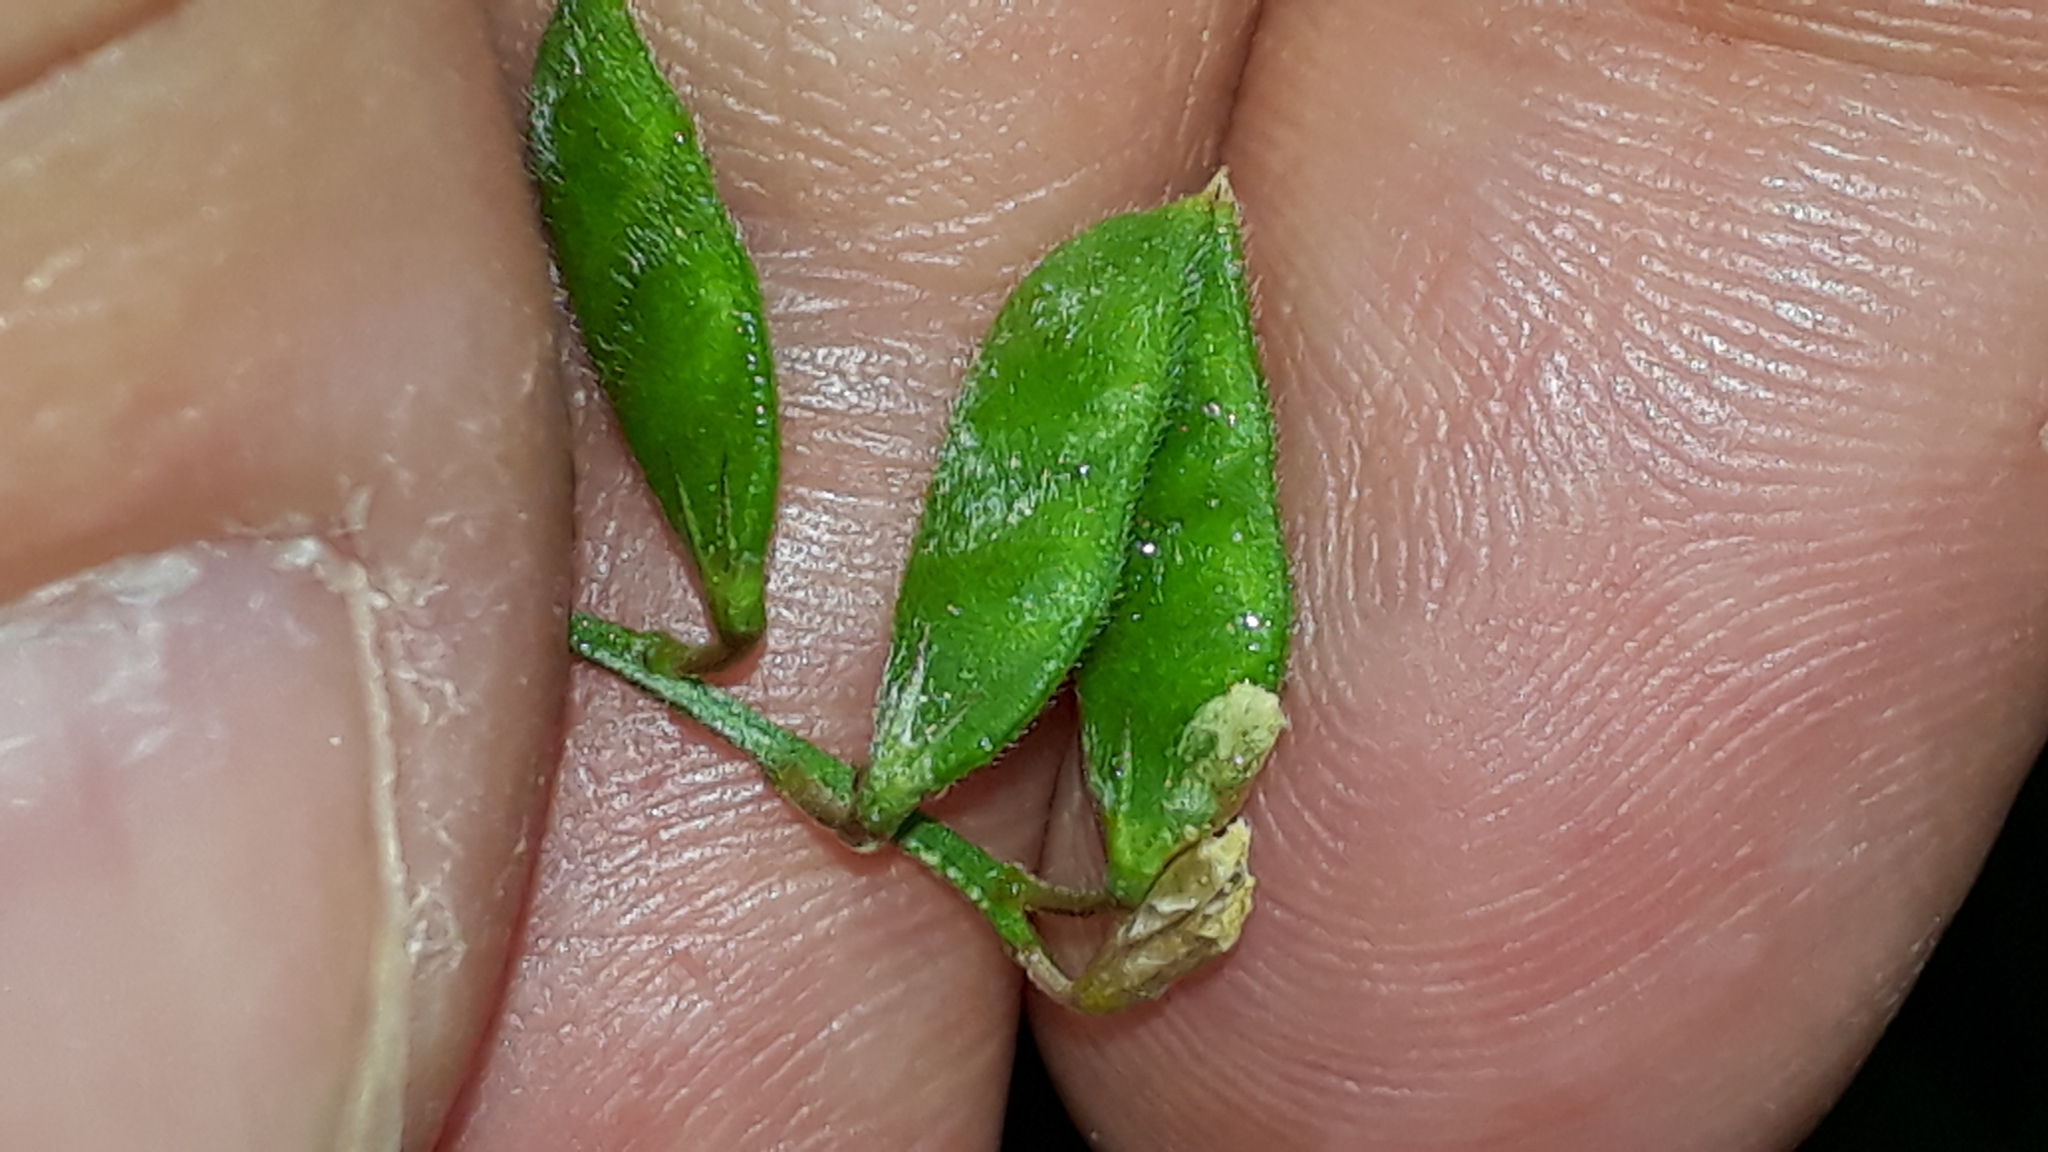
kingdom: Plantae
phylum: Tracheophyta
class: Magnoliopsida
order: Fabales
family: Fabaceae
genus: Vicia
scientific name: Vicia hirsuta
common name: Tiny vetch
